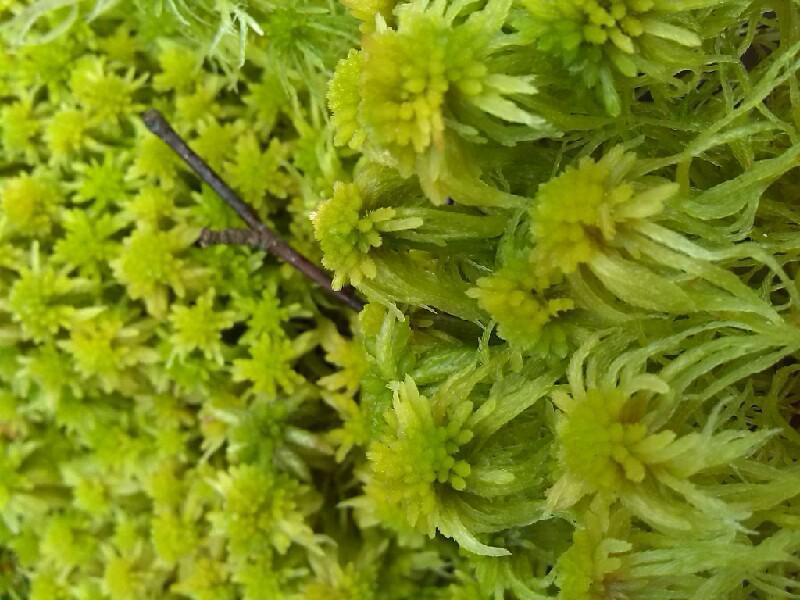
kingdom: Plantae
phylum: Bryophyta
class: Sphagnopsida
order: Sphagnales
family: Sphagnaceae
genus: Sphagnum
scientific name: Sphagnum fallax
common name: Flat-top peat moss
